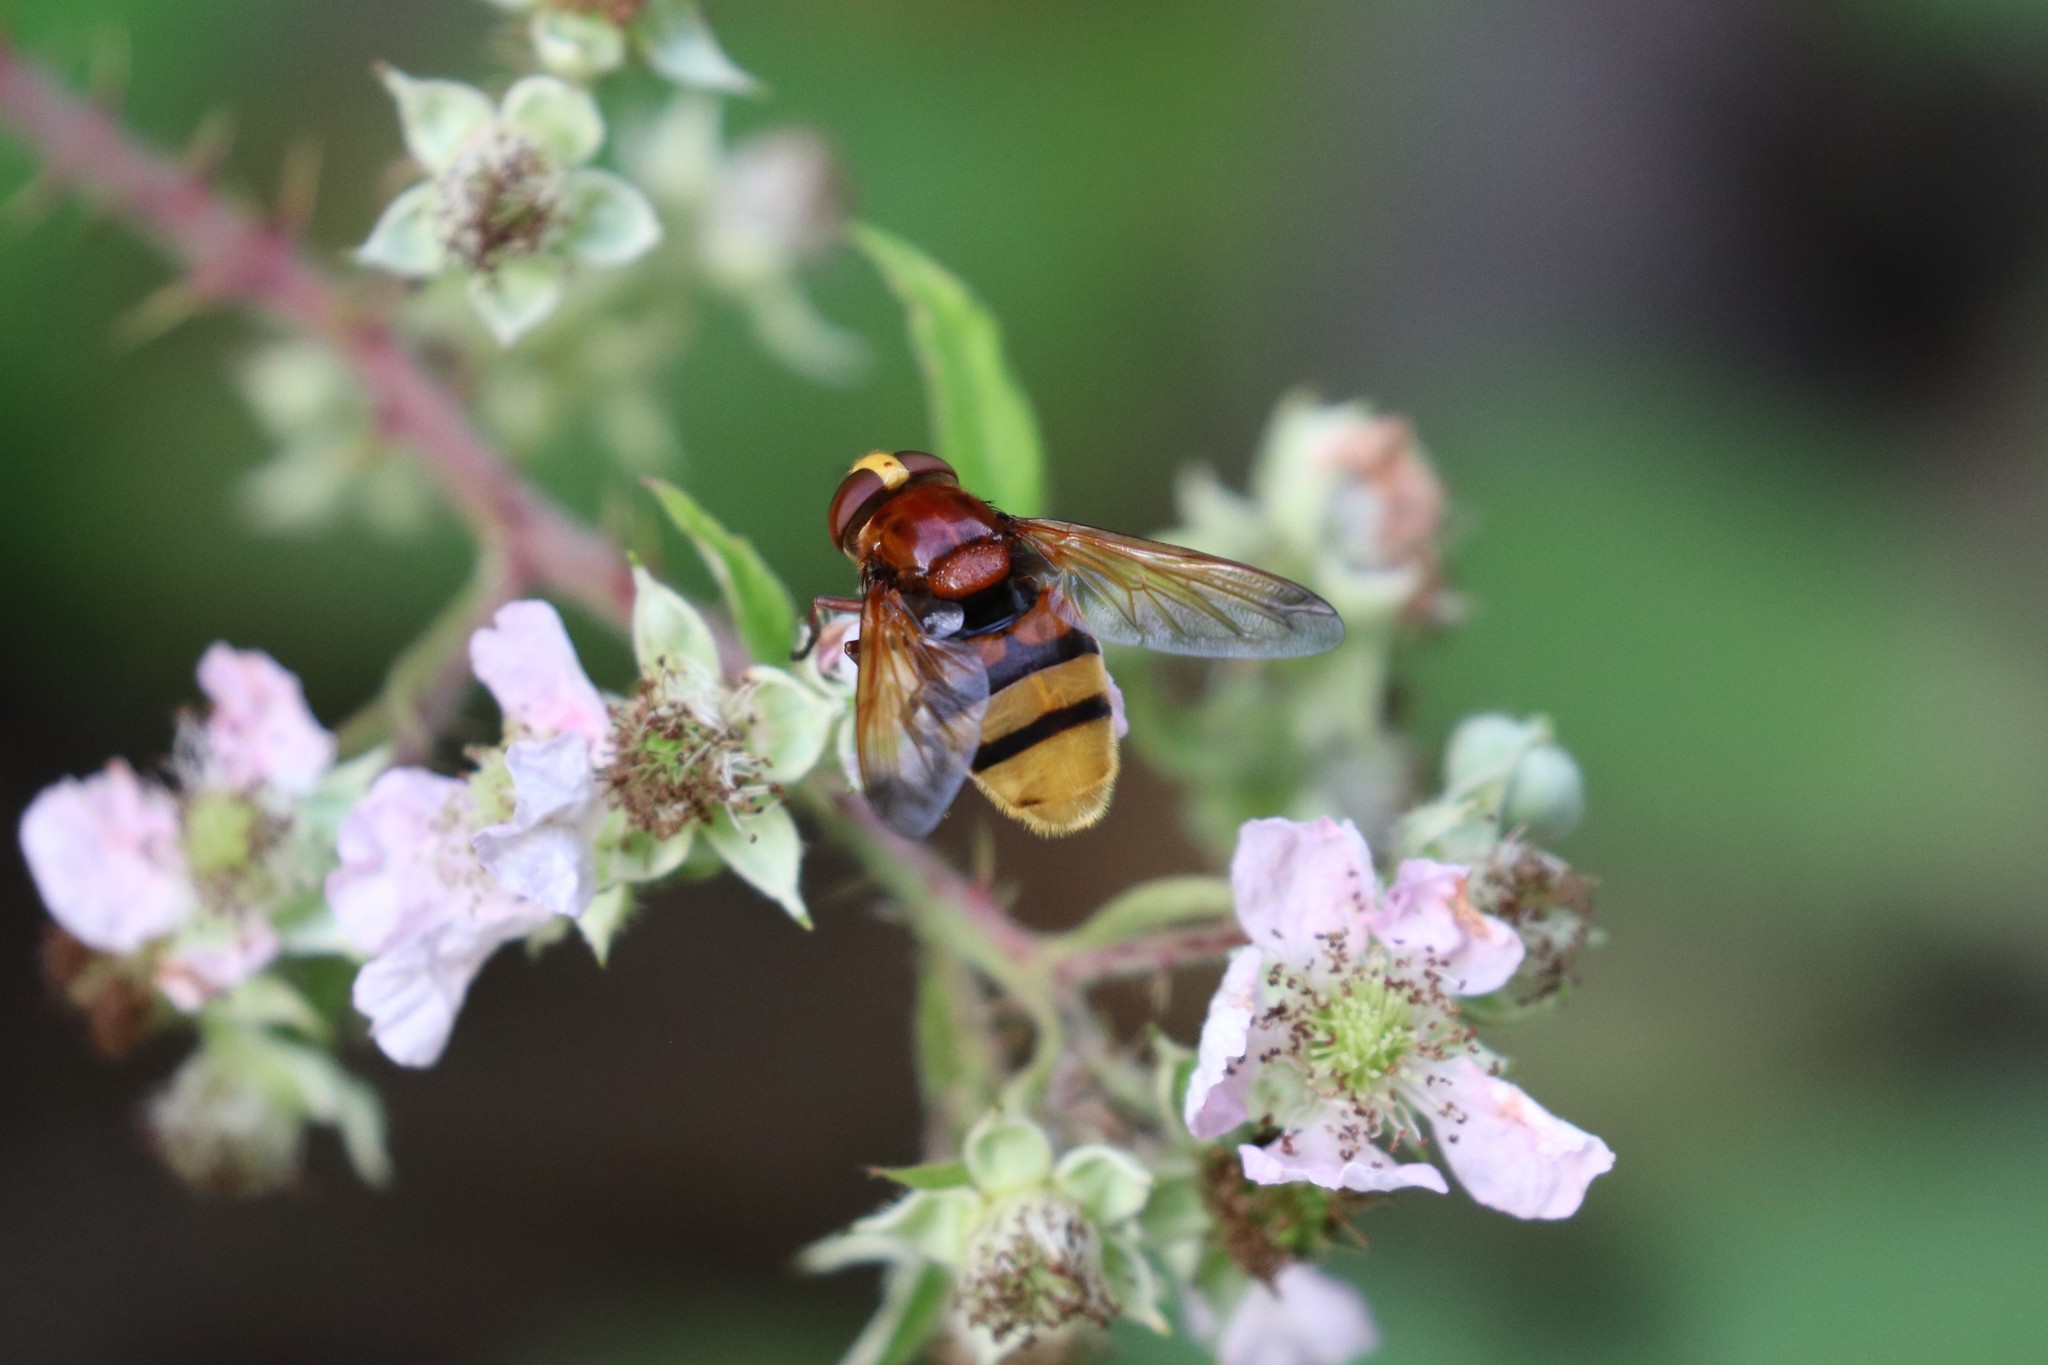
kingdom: Animalia
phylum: Arthropoda
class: Insecta
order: Diptera
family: Syrphidae
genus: Volucella
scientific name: Volucella zonaria
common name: Hornet hoverfly
